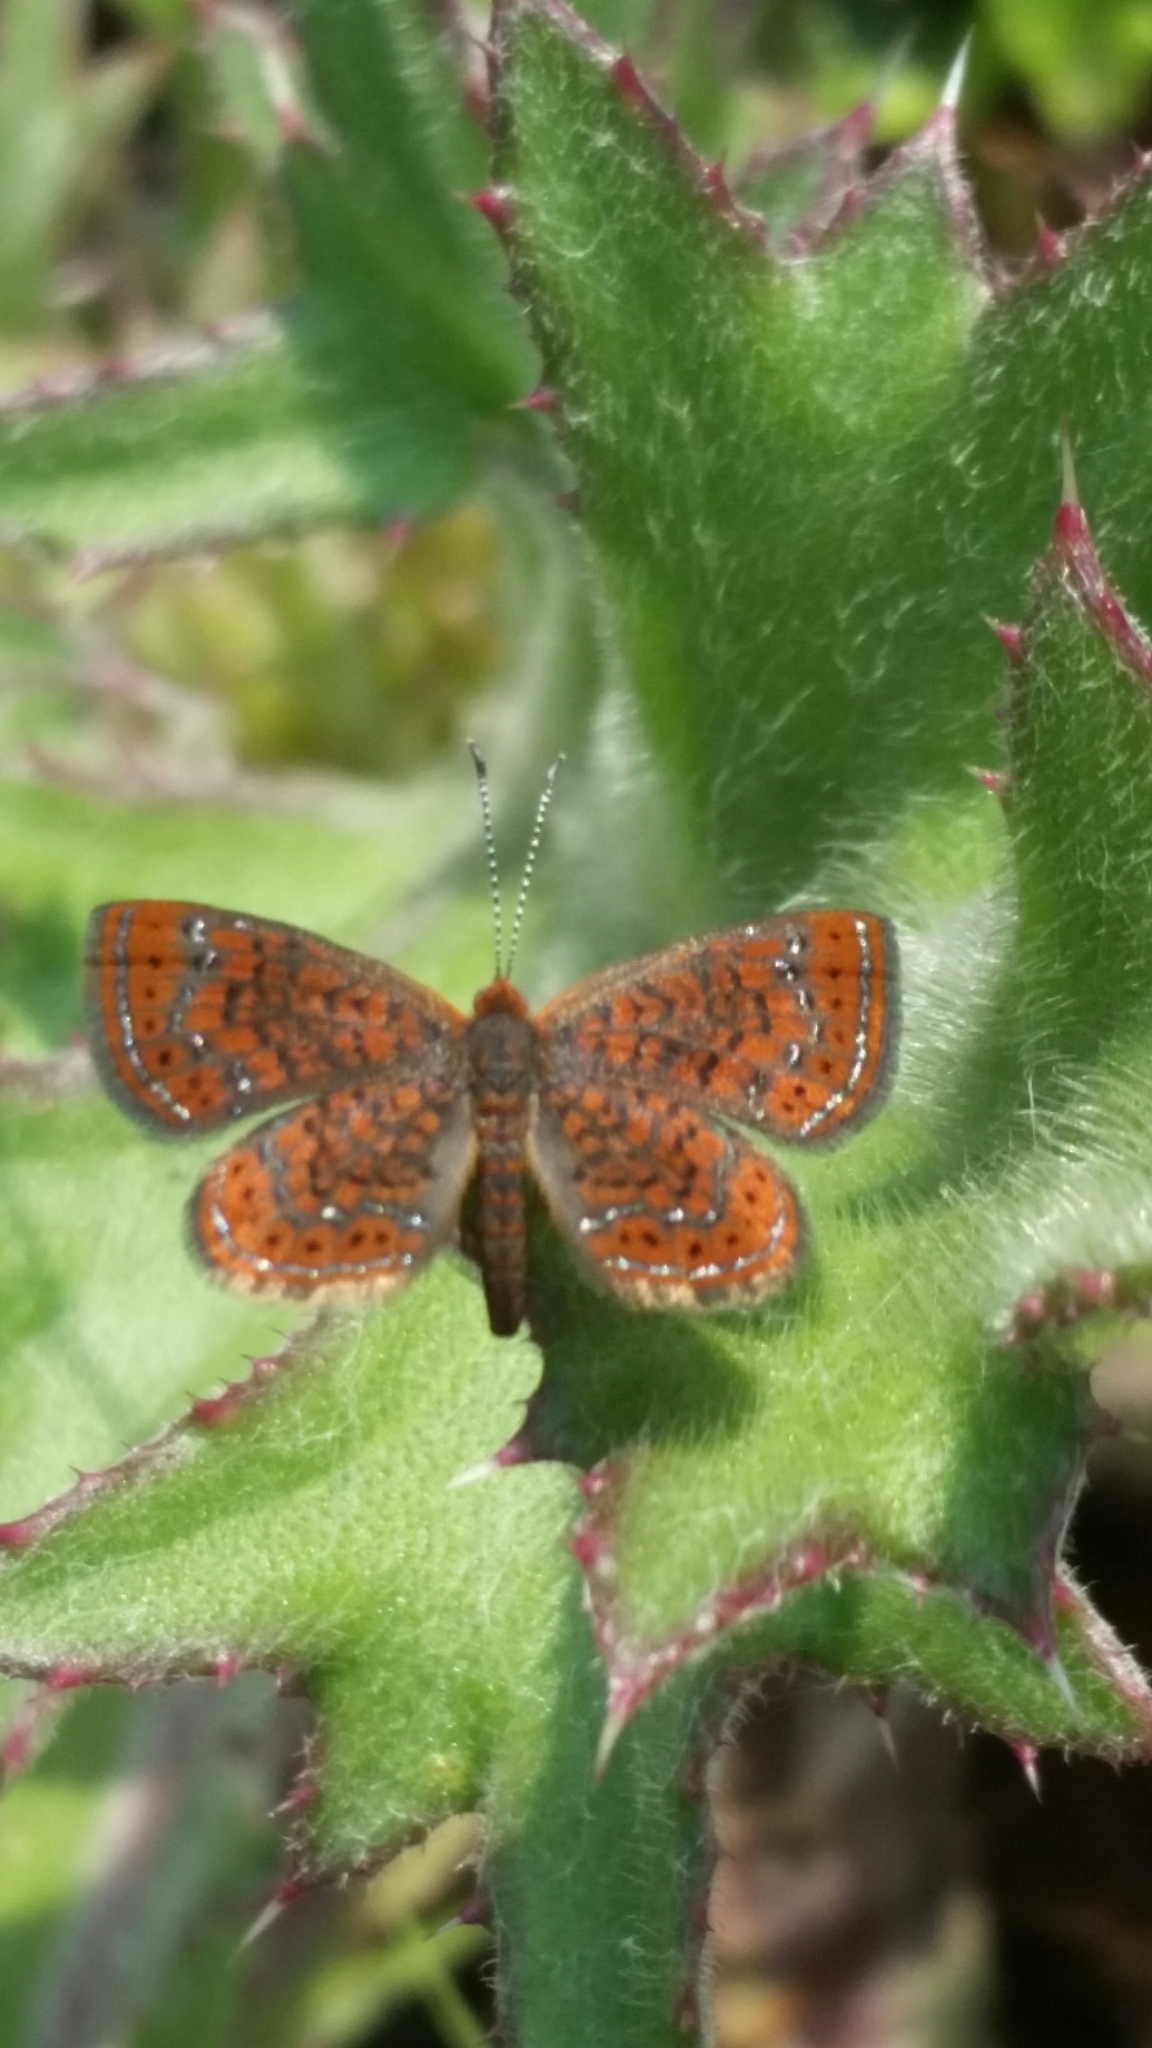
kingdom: Animalia
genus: Calephelis
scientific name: Calephelis virginiensis
